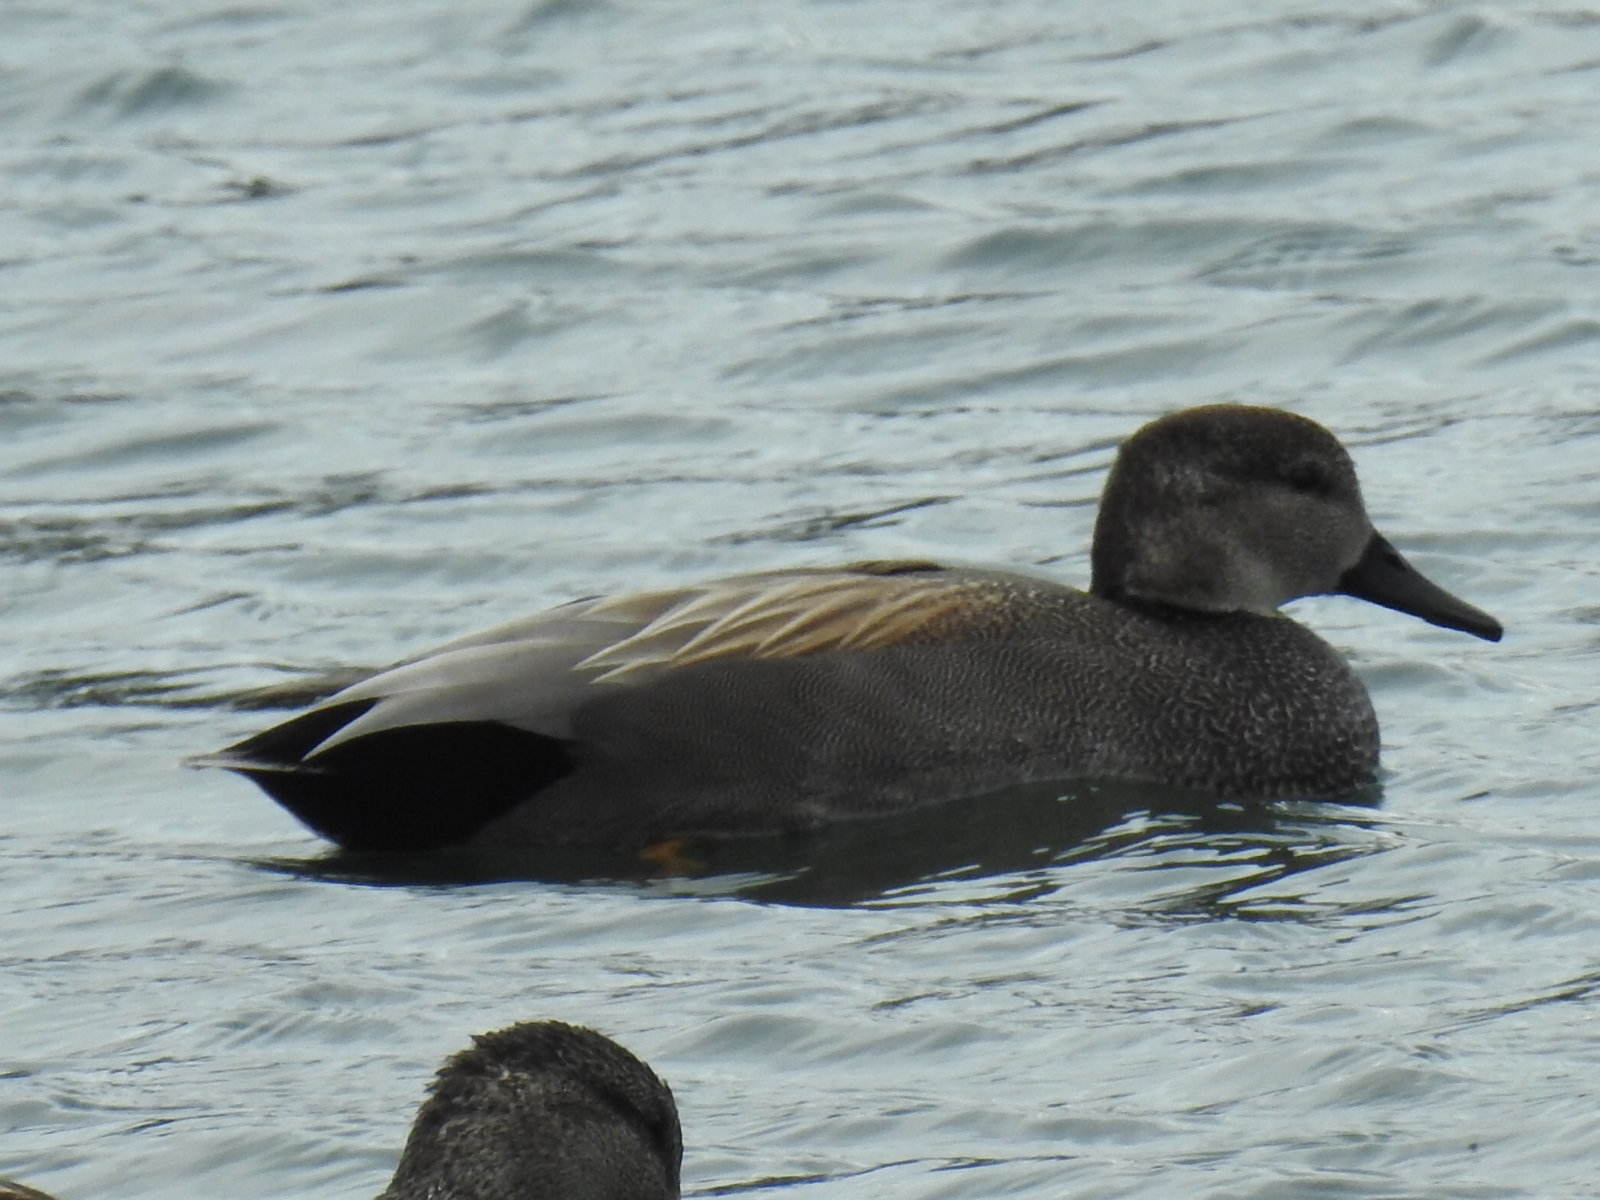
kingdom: Animalia
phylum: Chordata
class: Aves
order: Anseriformes
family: Anatidae
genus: Mareca
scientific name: Mareca strepera
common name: Gadwall
